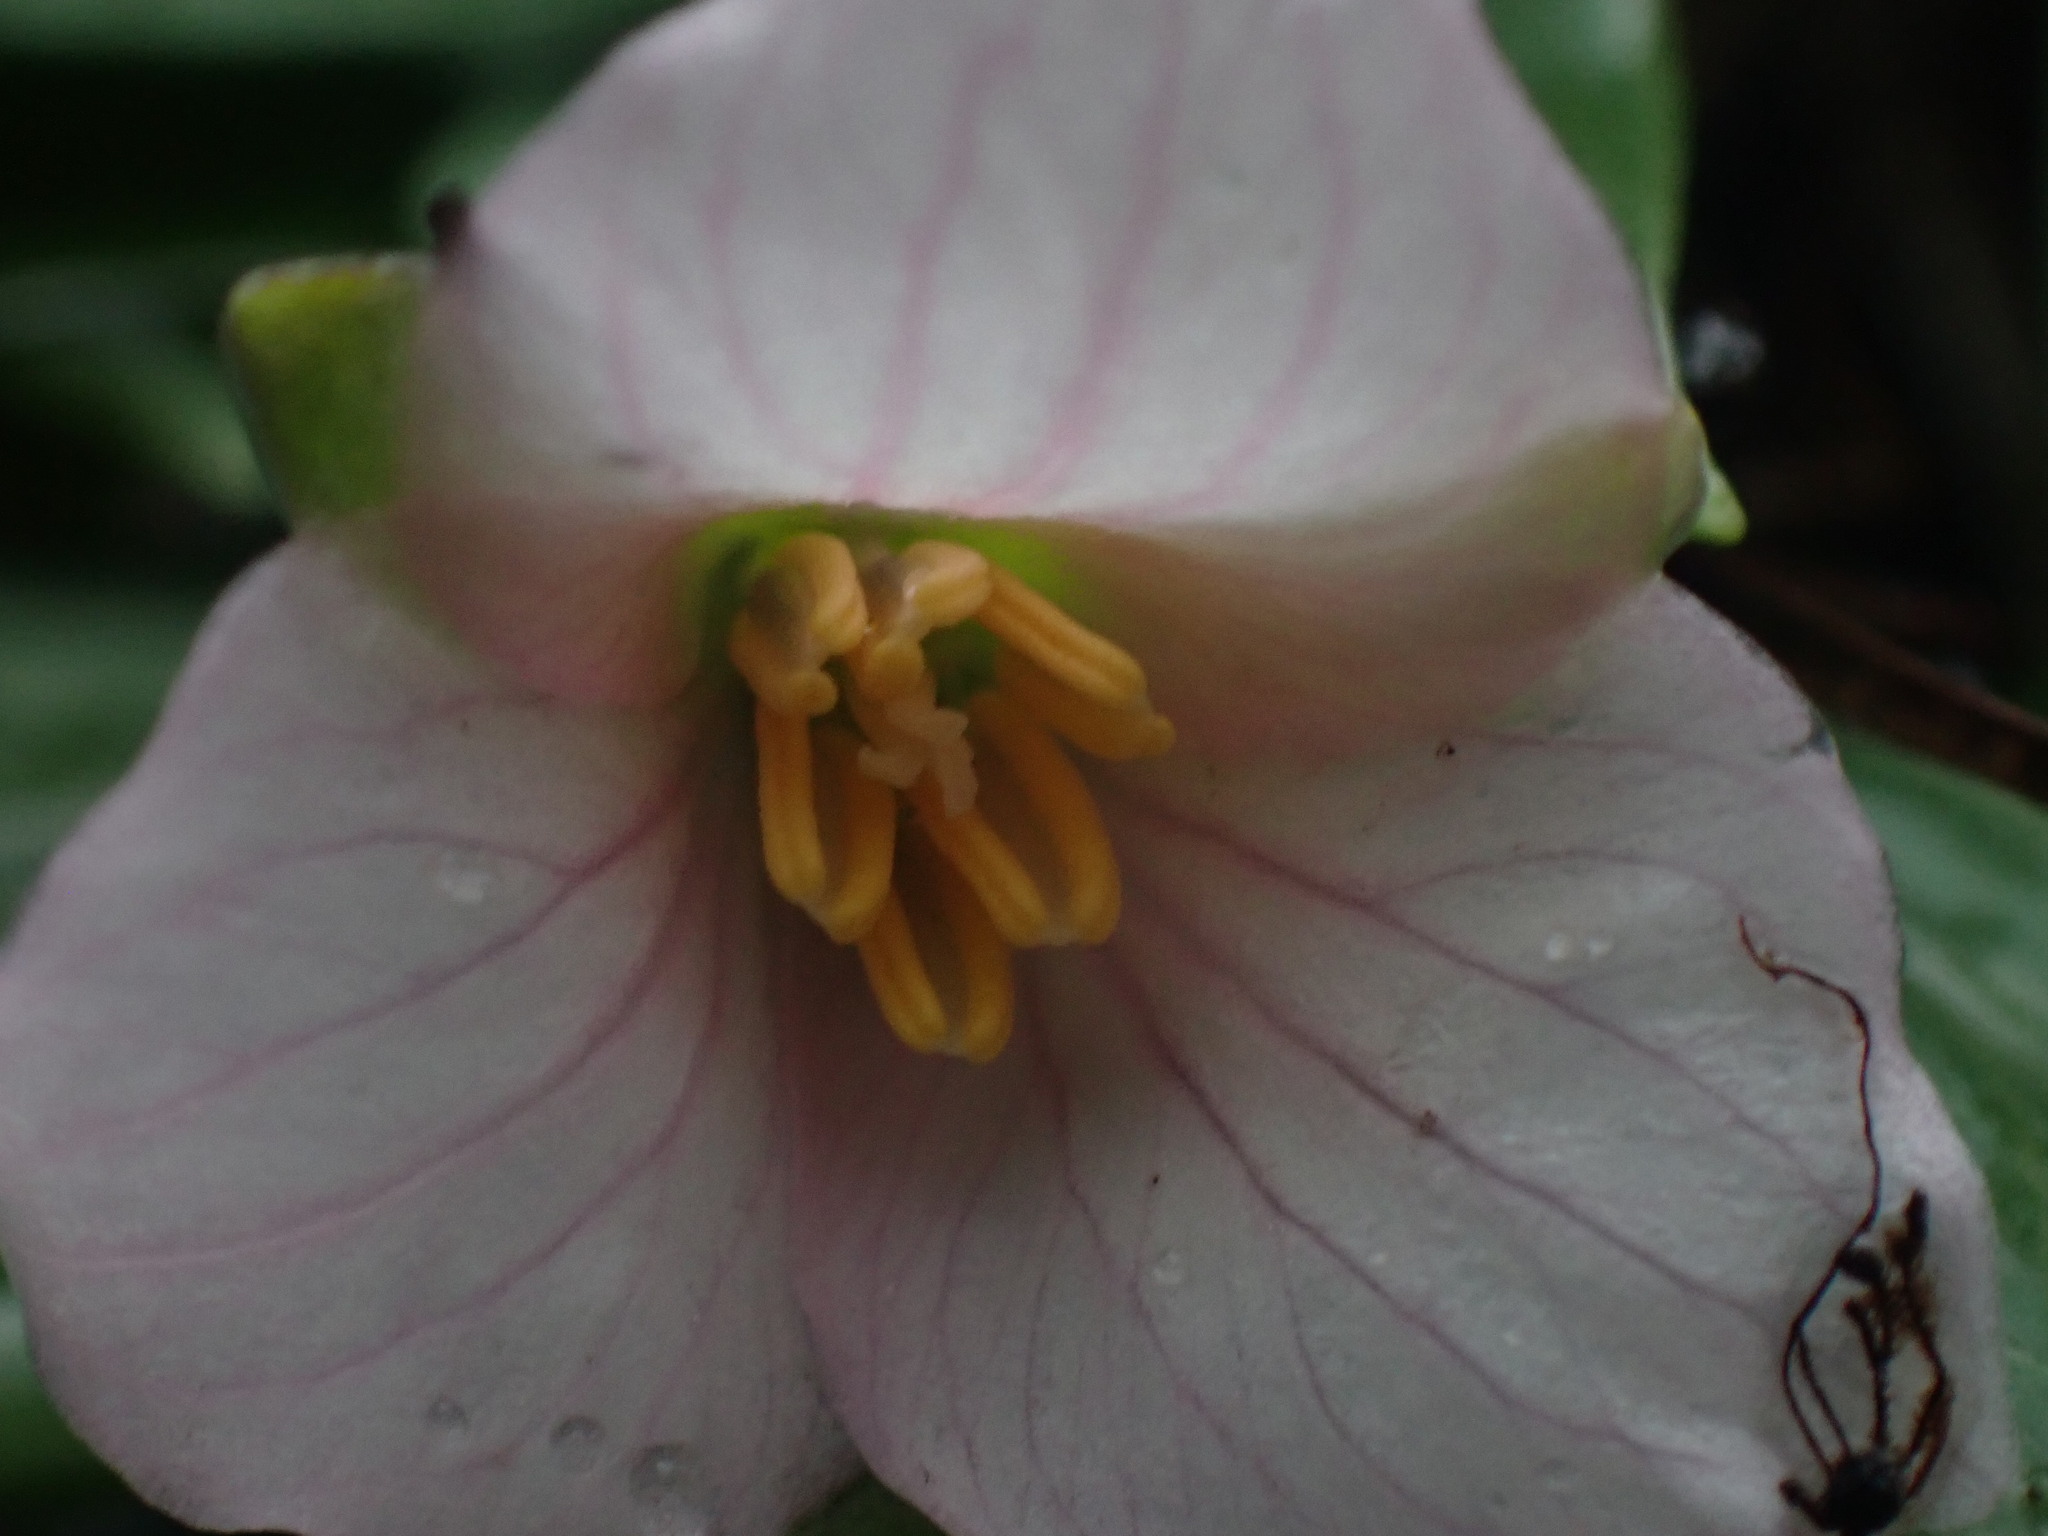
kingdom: Plantae
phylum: Tracheophyta
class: Liliopsida
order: Liliales
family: Melanthiaceae
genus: Trillium
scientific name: Trillium hibbersonii
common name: Hibberson's trillium
